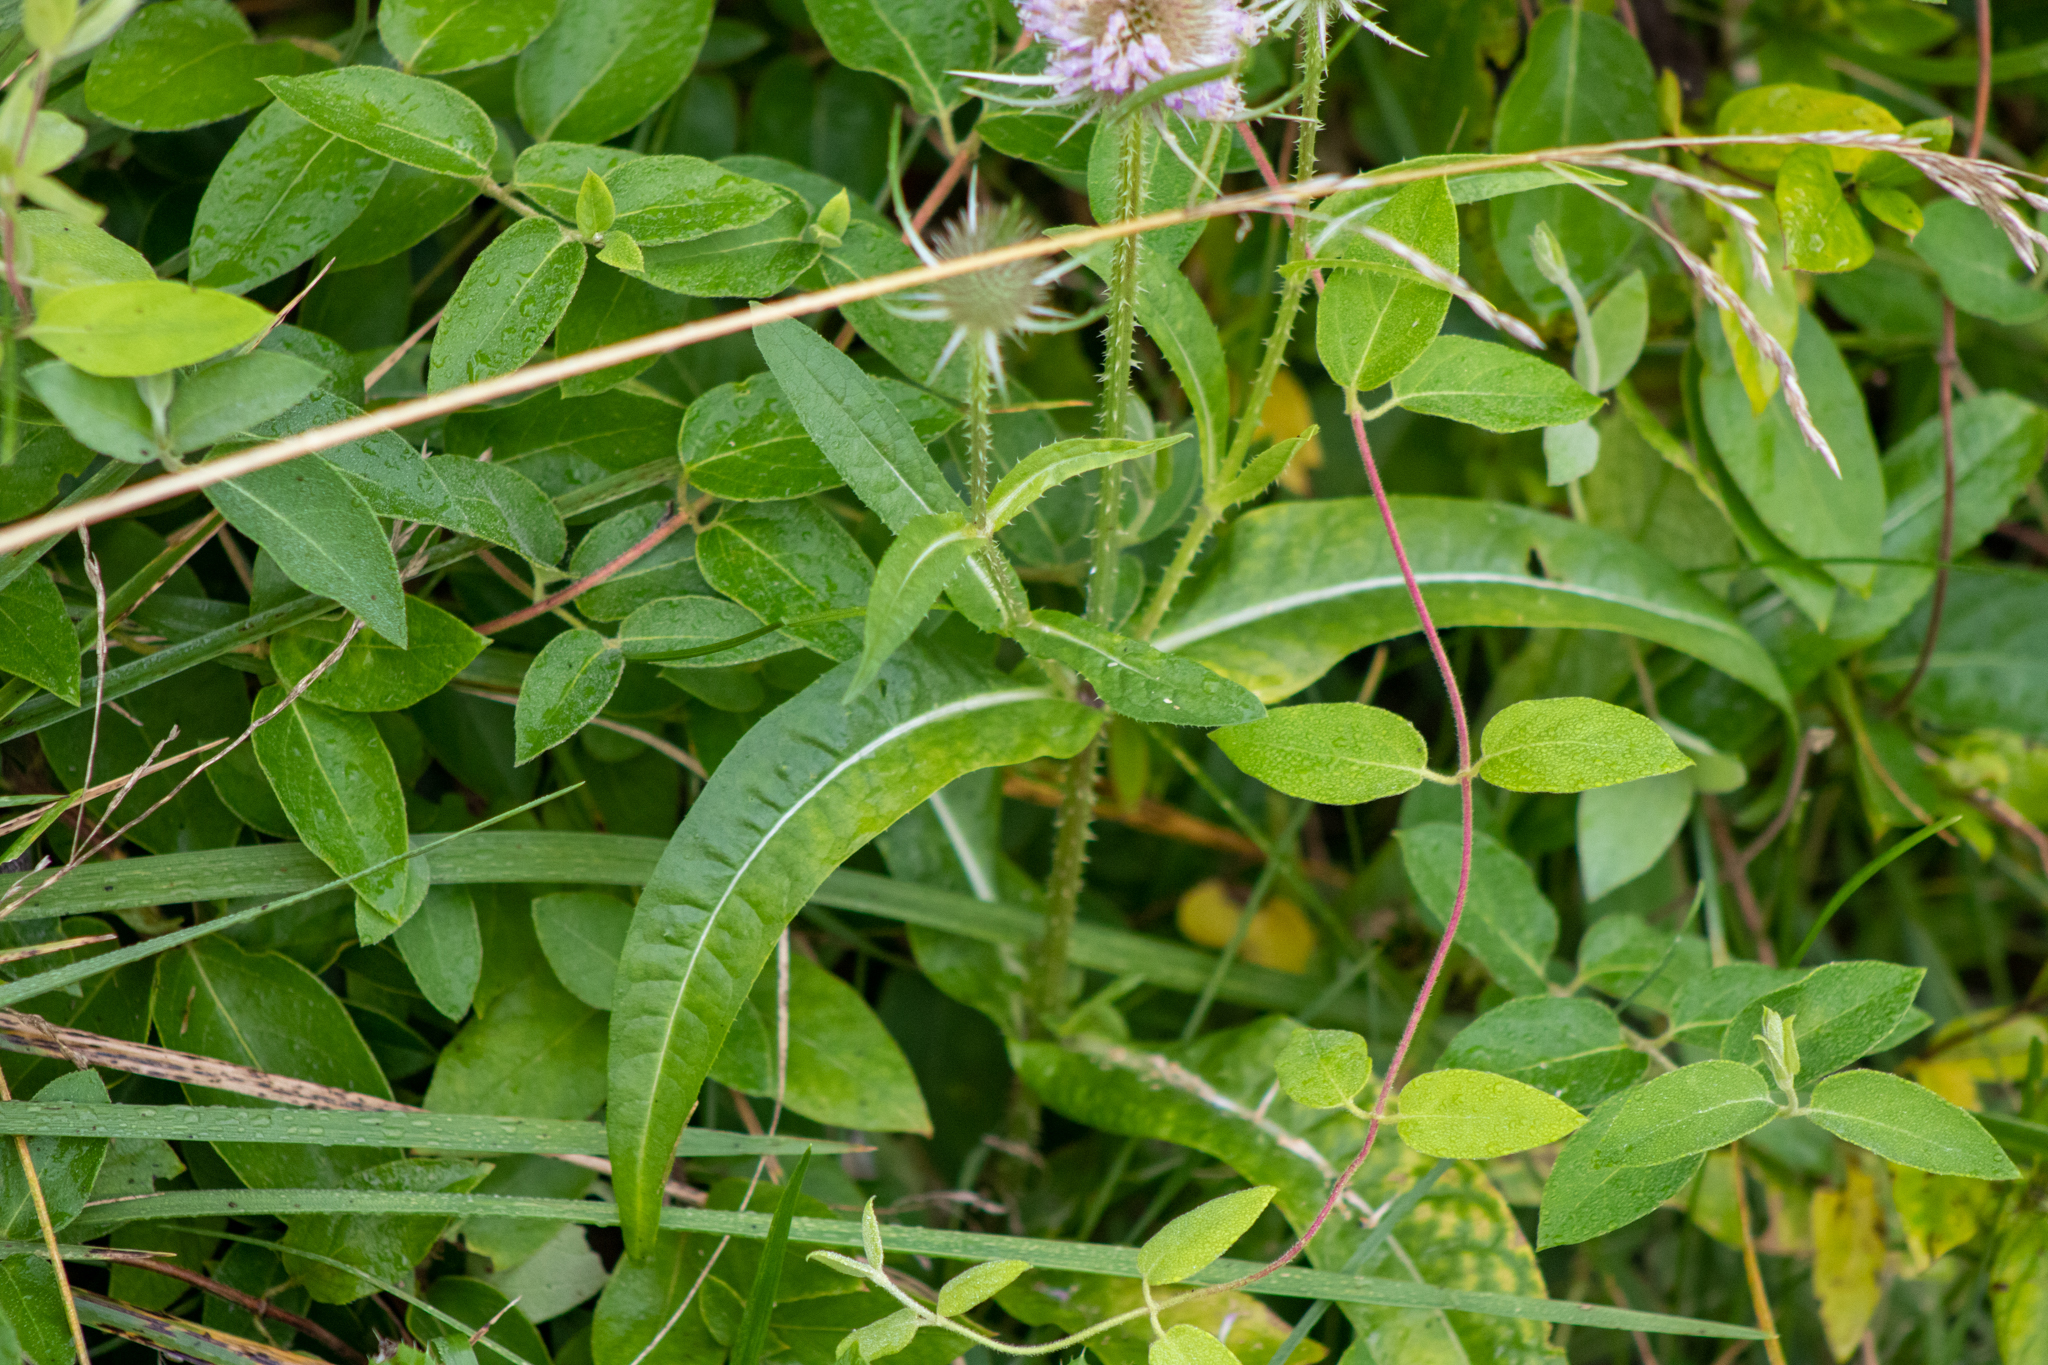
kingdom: Plantae
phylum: Tracheophyta
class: Magnoliopsida
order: Dipsacales
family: Caprifoliaceae
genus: Dipsacus
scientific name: Dipsacus fullonum
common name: Teasel
